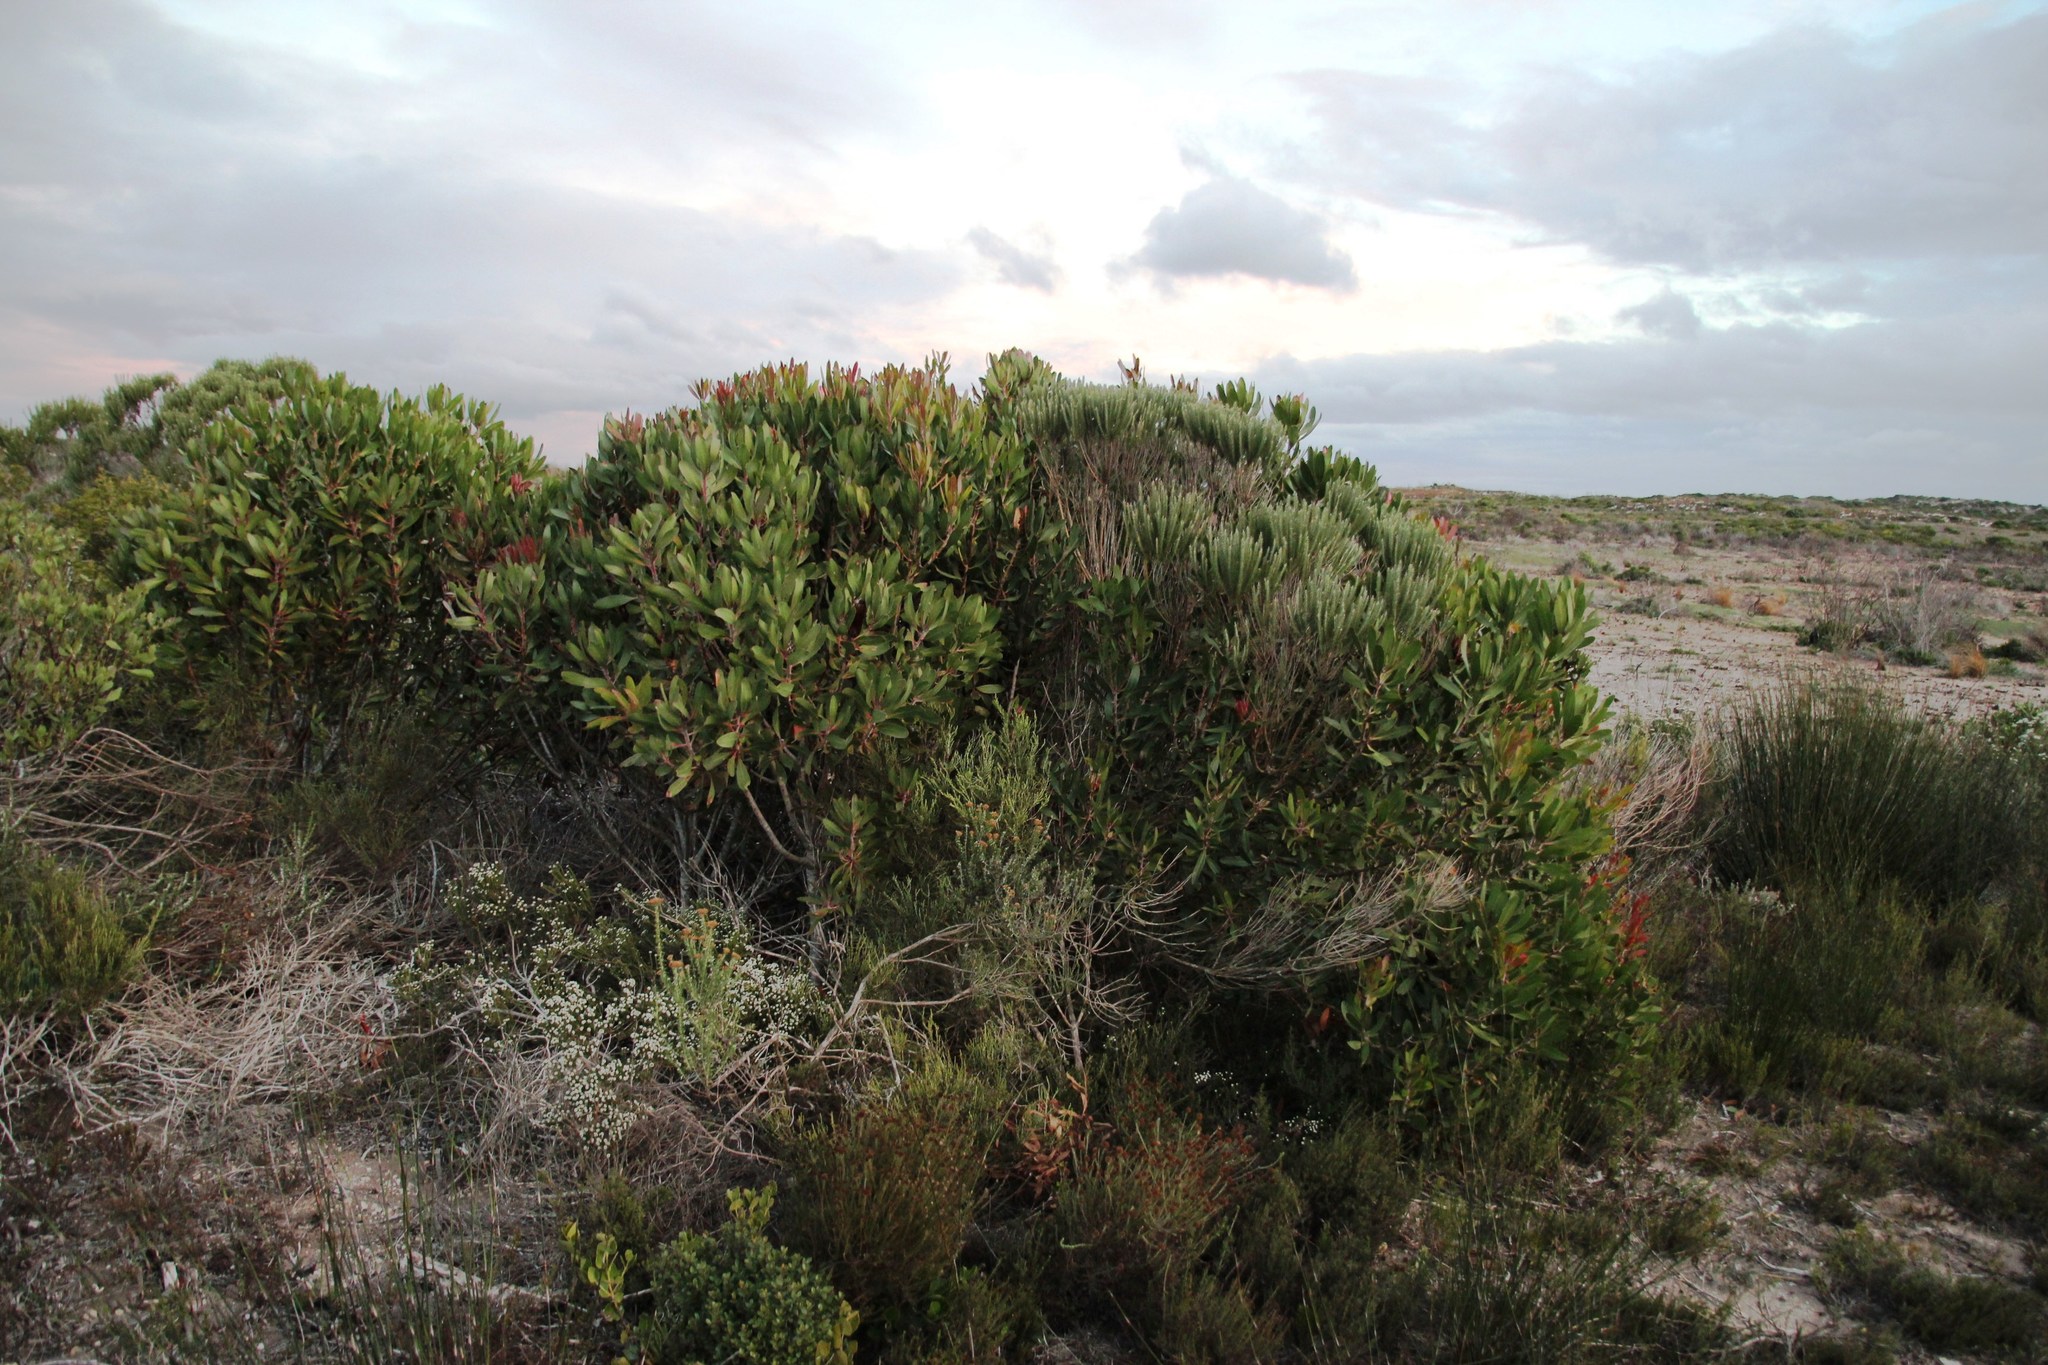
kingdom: Plantae
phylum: Tracheophyta
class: Magnoliopsida
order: Proteales
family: Proteaceae
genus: Protea
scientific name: Protea obtusifolia
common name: Bredasdorp sugarbush
